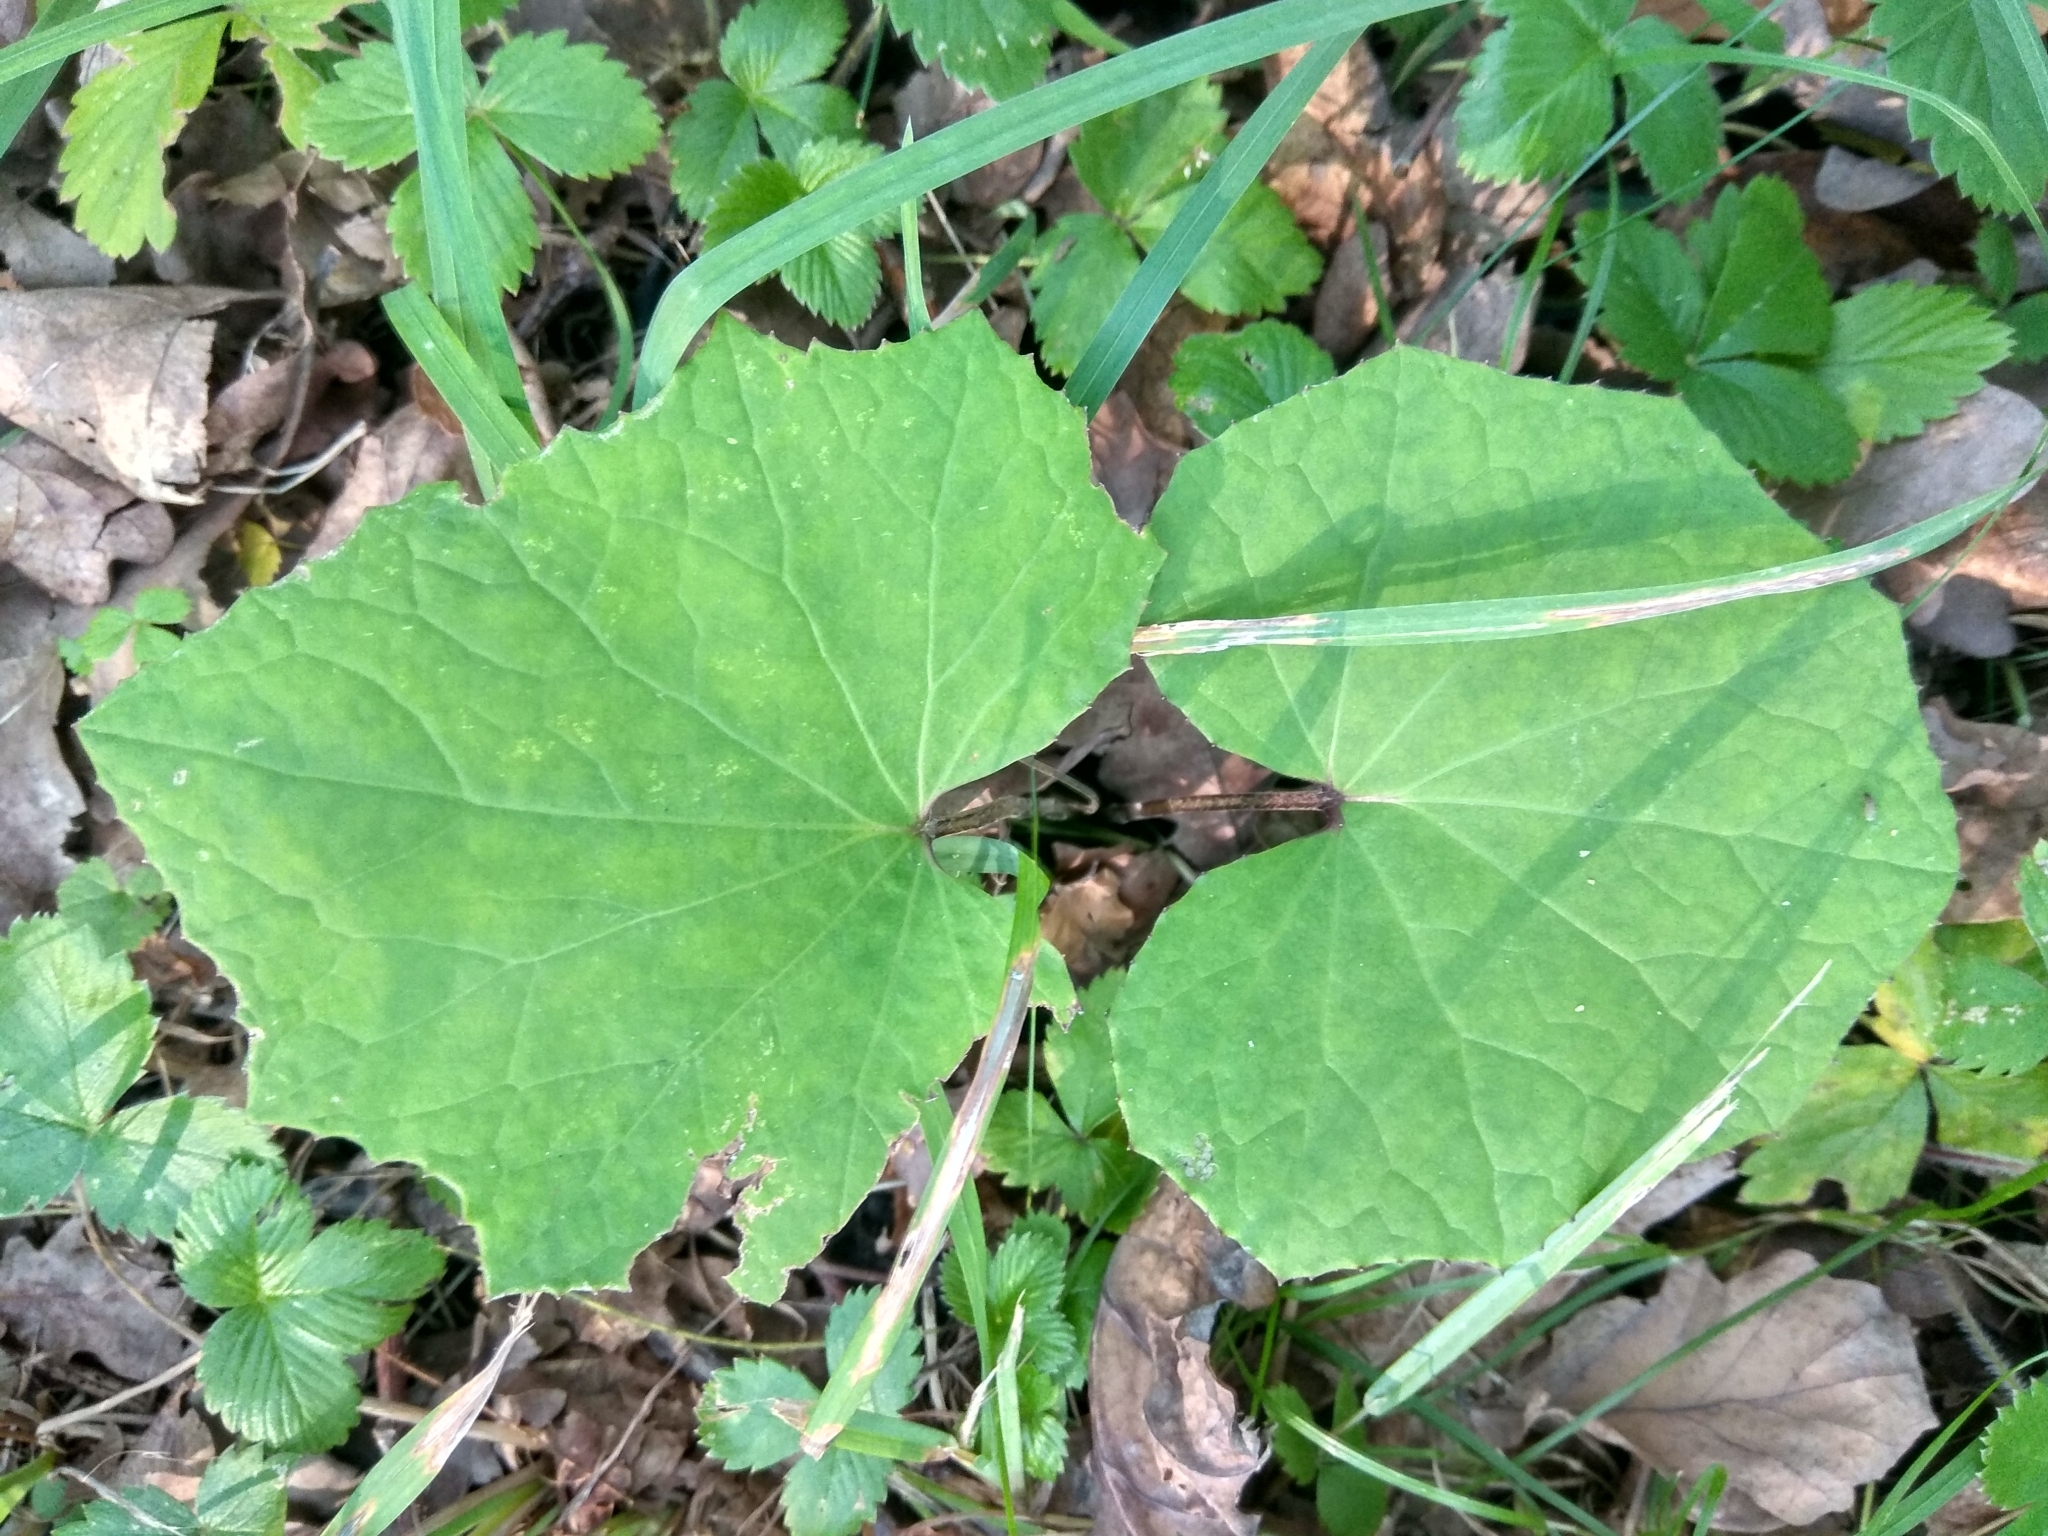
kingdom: Plantae
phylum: Tracheophyta
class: Magnoliopsida
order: Asterales
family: Asteraceae
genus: Tussilago
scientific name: Tussilago farfara
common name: Coltsfoot
